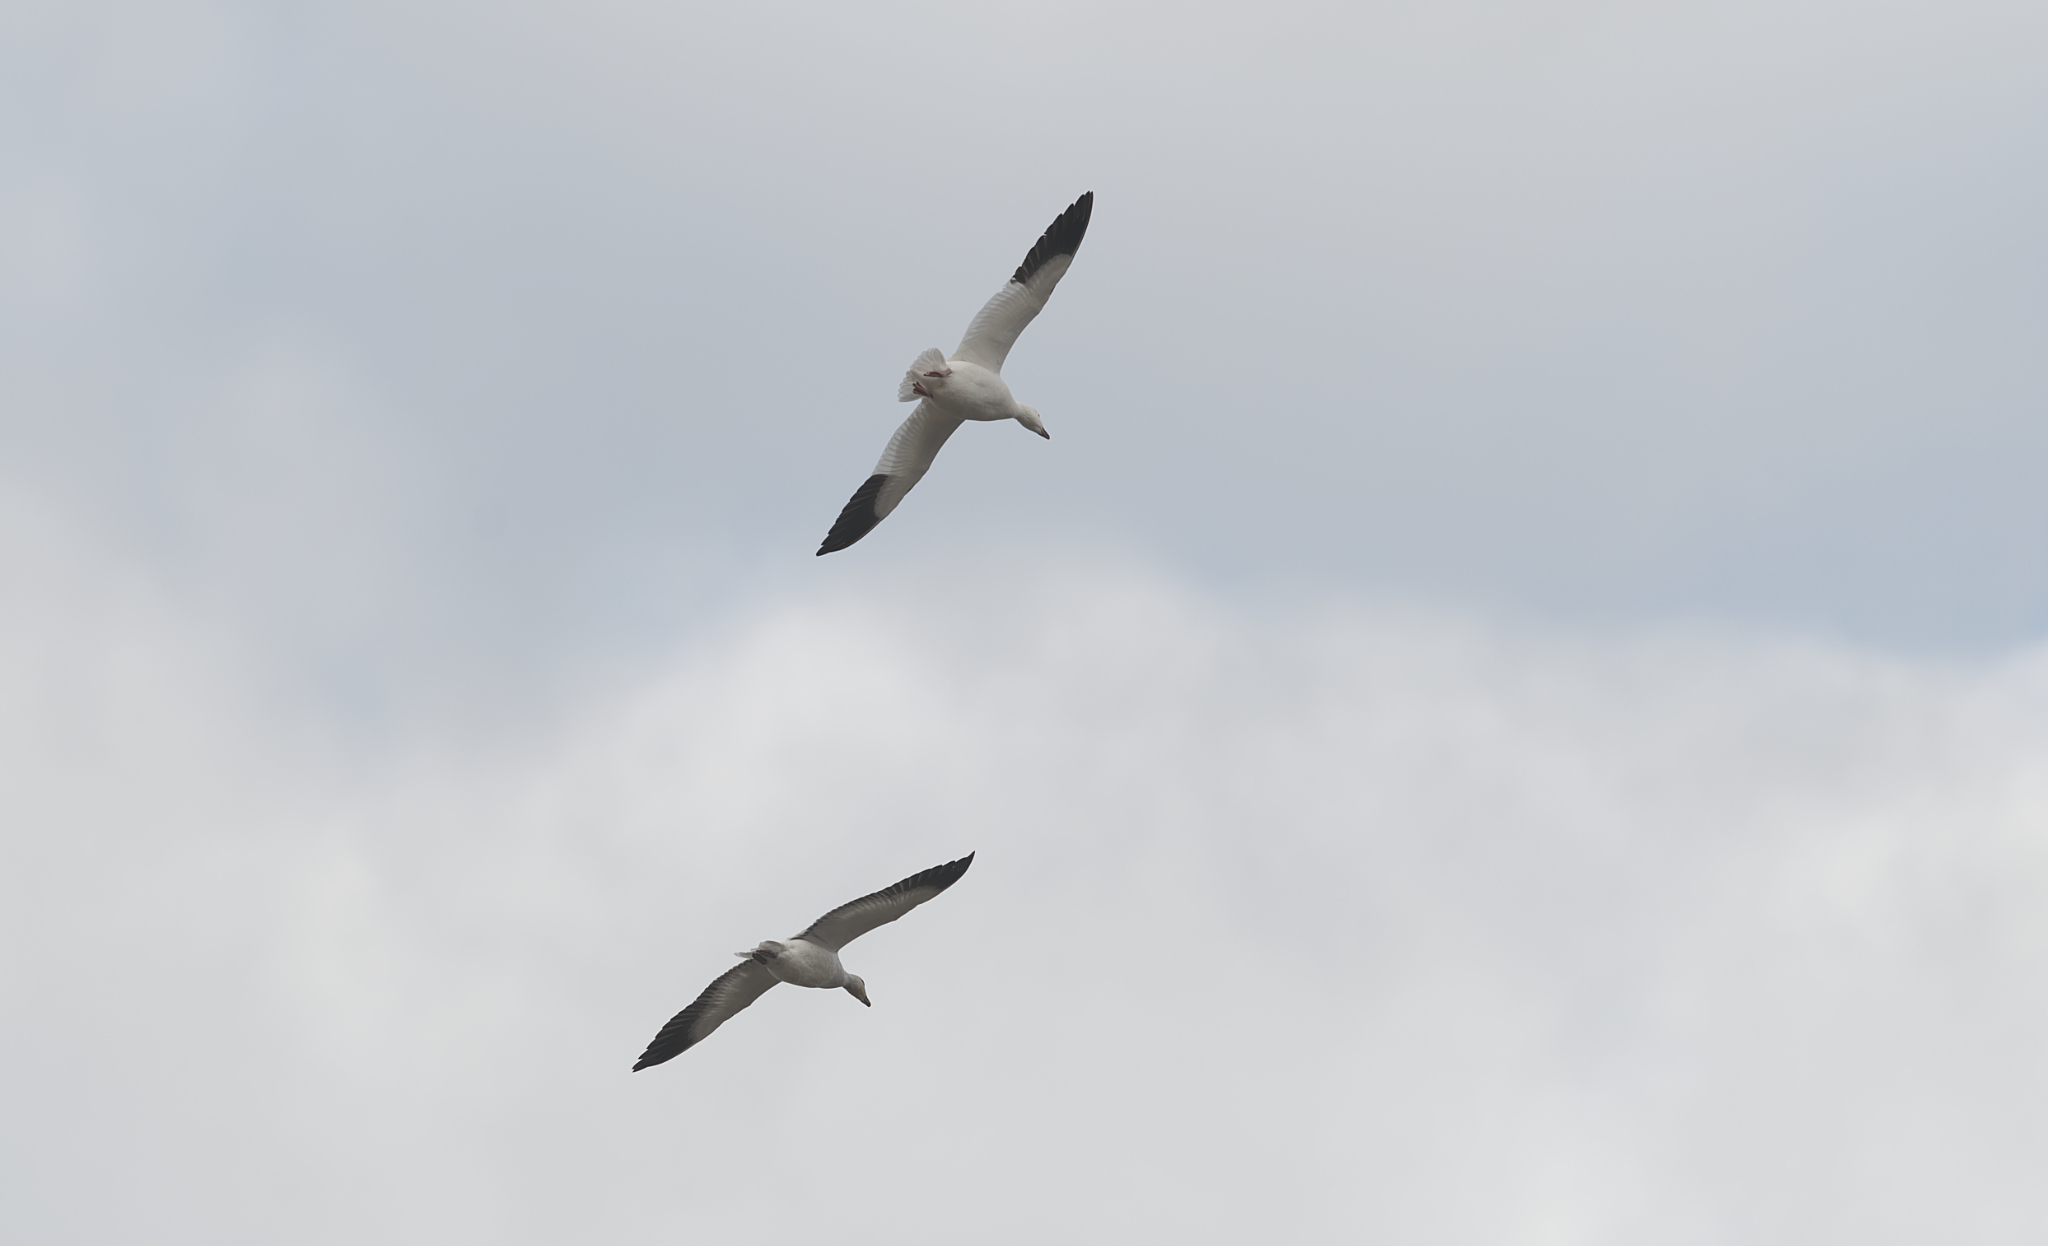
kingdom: Animalia
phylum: Chordata
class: Aves
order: Anseriformes
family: Anatidae
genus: Anser
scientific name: Anser caerulescens
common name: Snow goose
